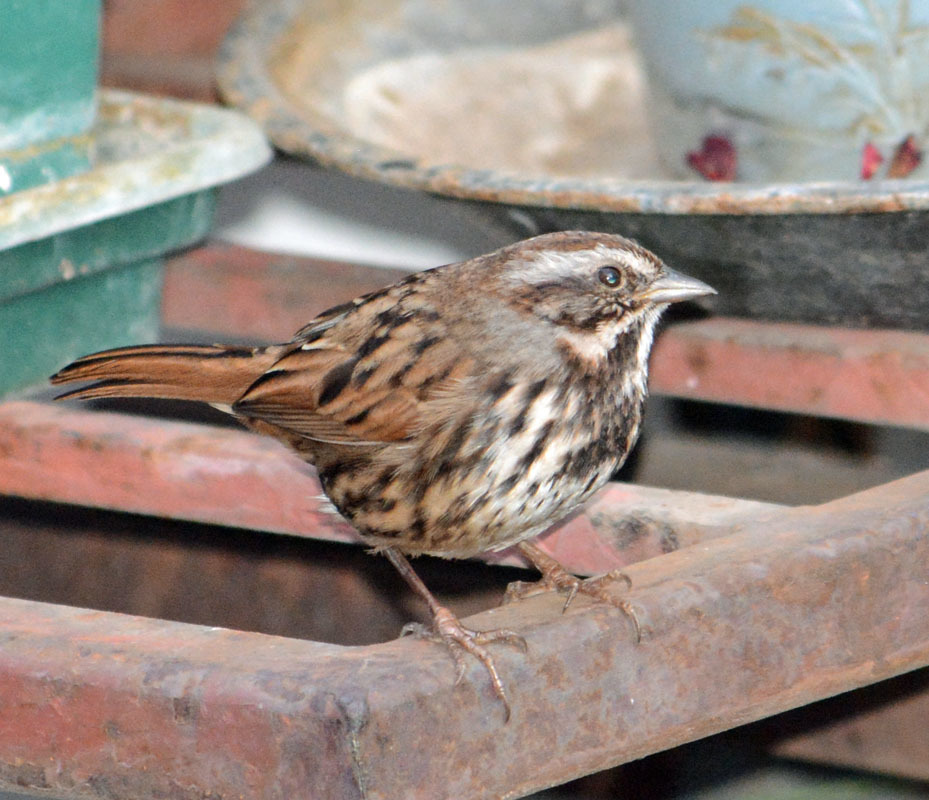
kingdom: Animalia
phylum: Chordata
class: Aves
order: Passeriformes
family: Passerellidae
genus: Melospiza
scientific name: Melospiza melodia
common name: Song sparrow
